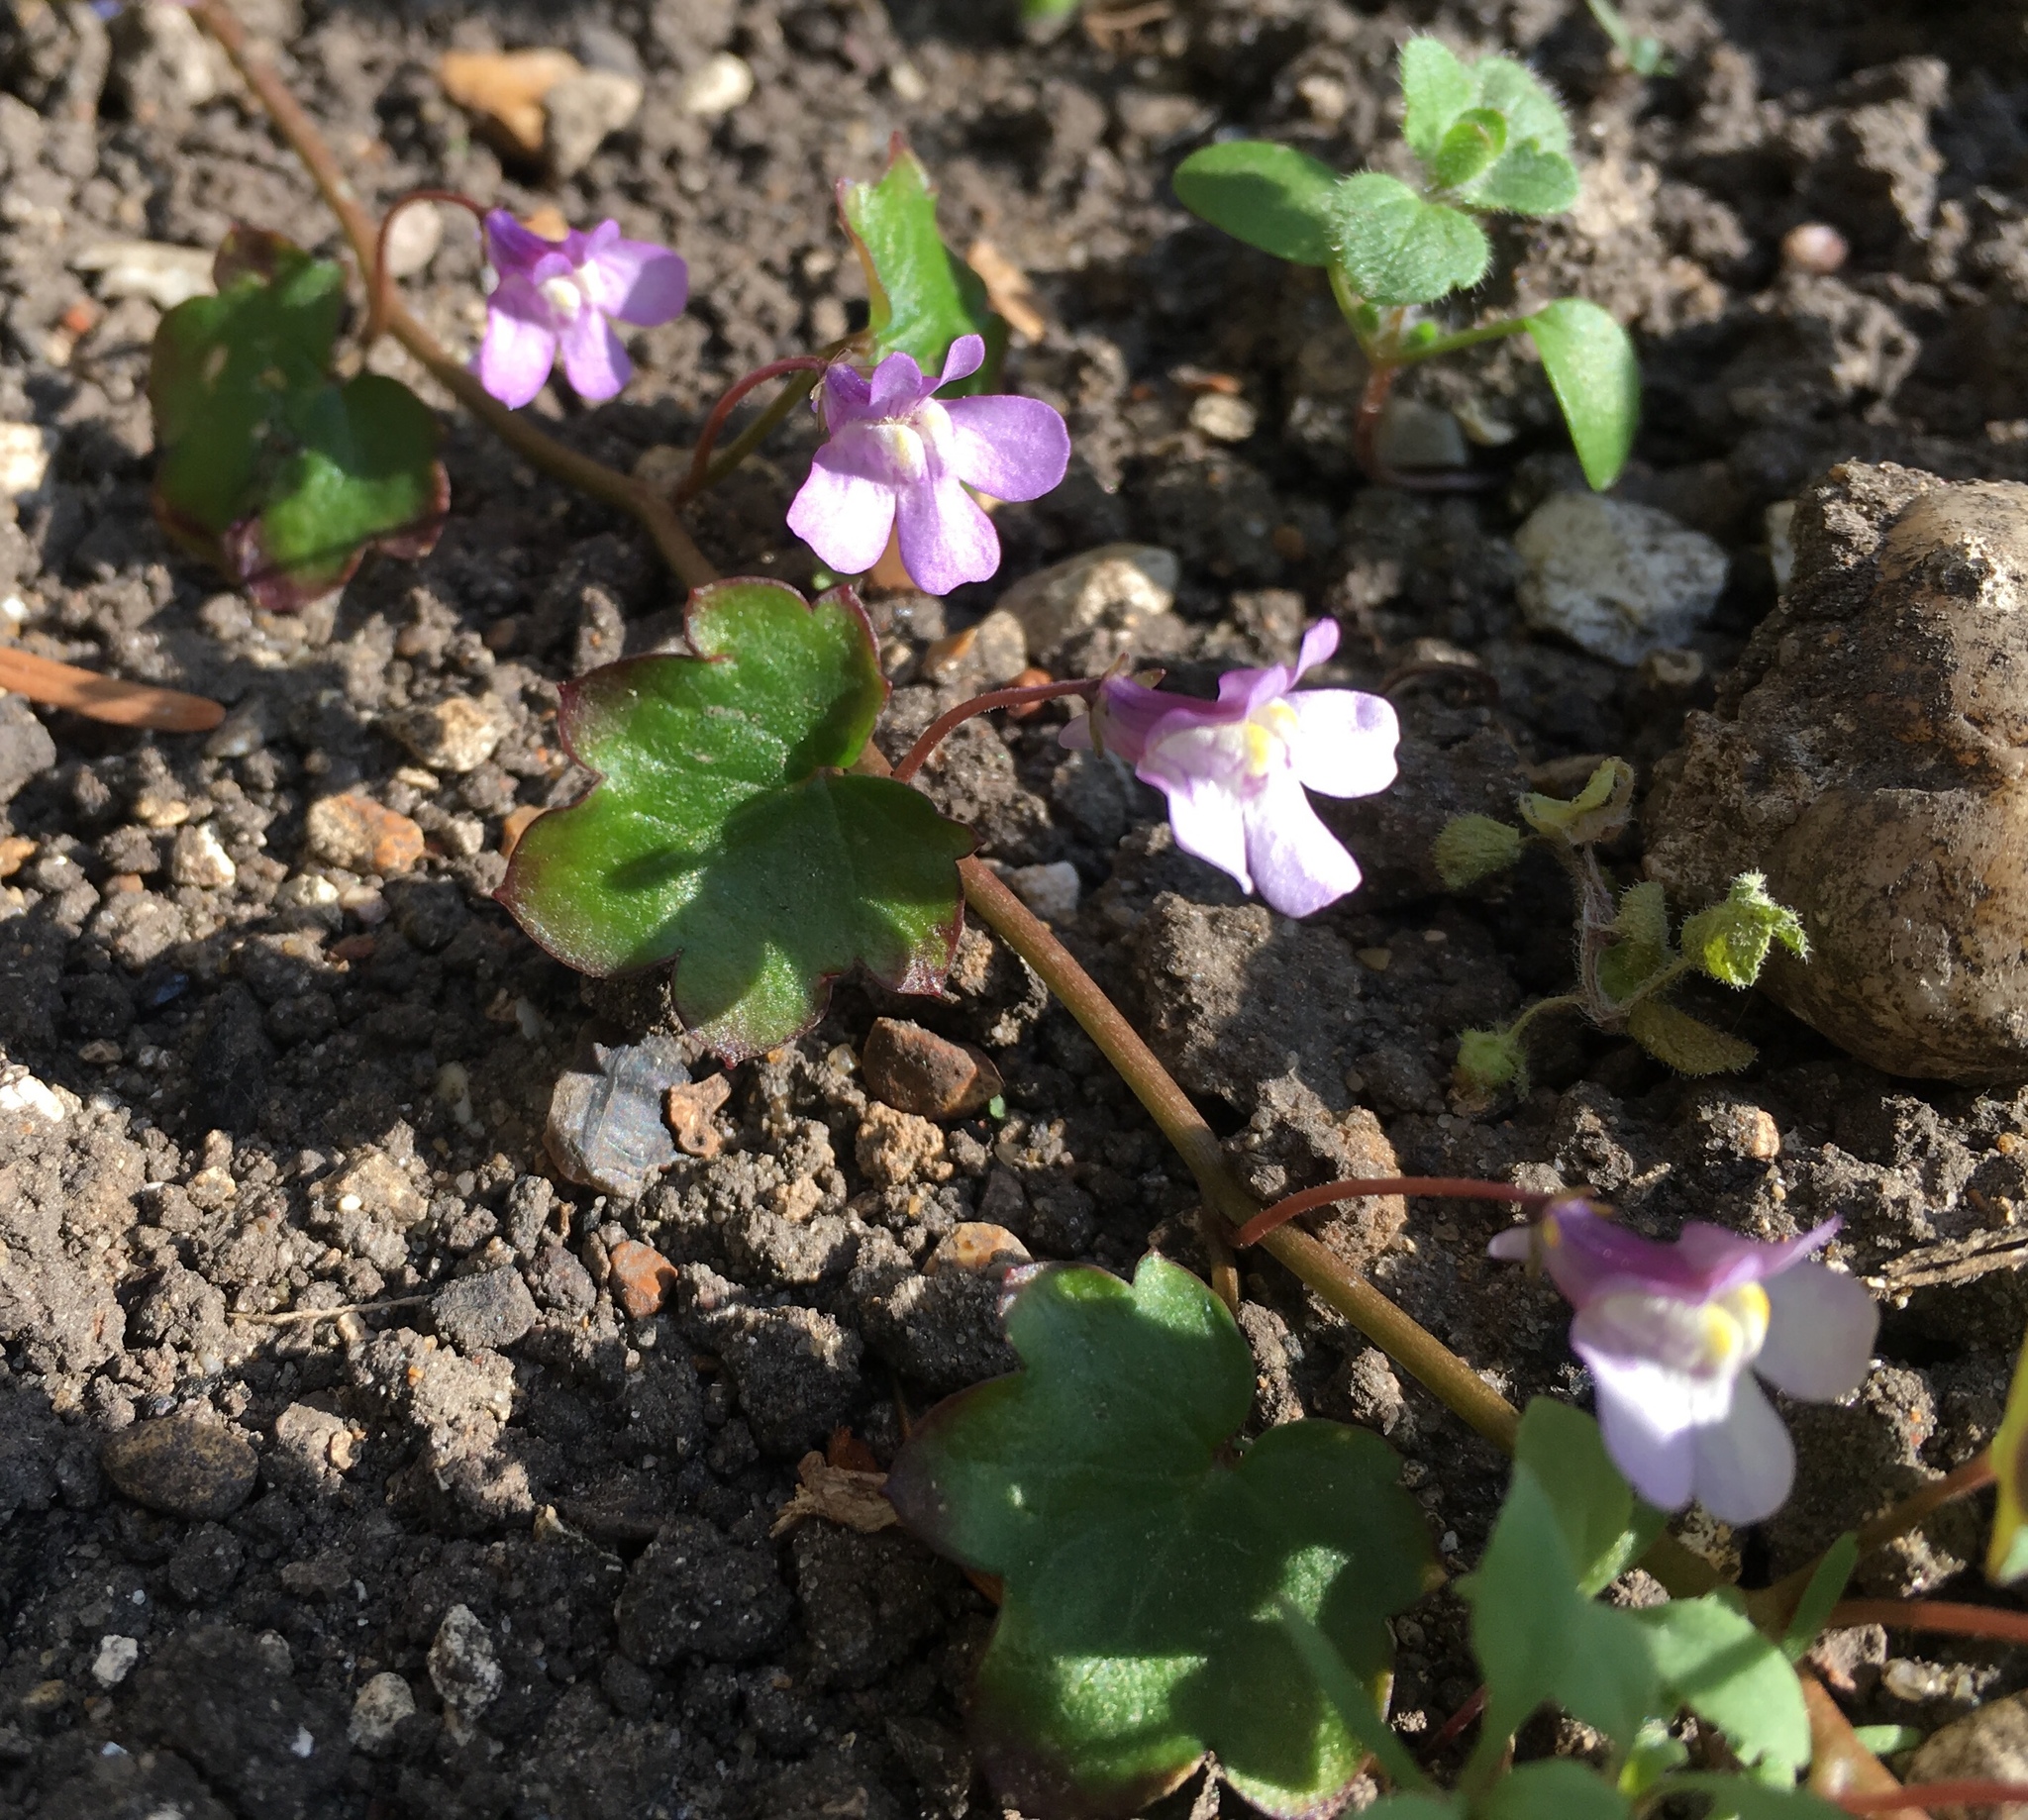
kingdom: Plantae
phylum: Tracheophyta
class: Magnoliopsida
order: Lamiales
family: Plantaginaceae
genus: Cymbalaria
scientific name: Cymbalaria muralis
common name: Ivy-leaved toadflax
